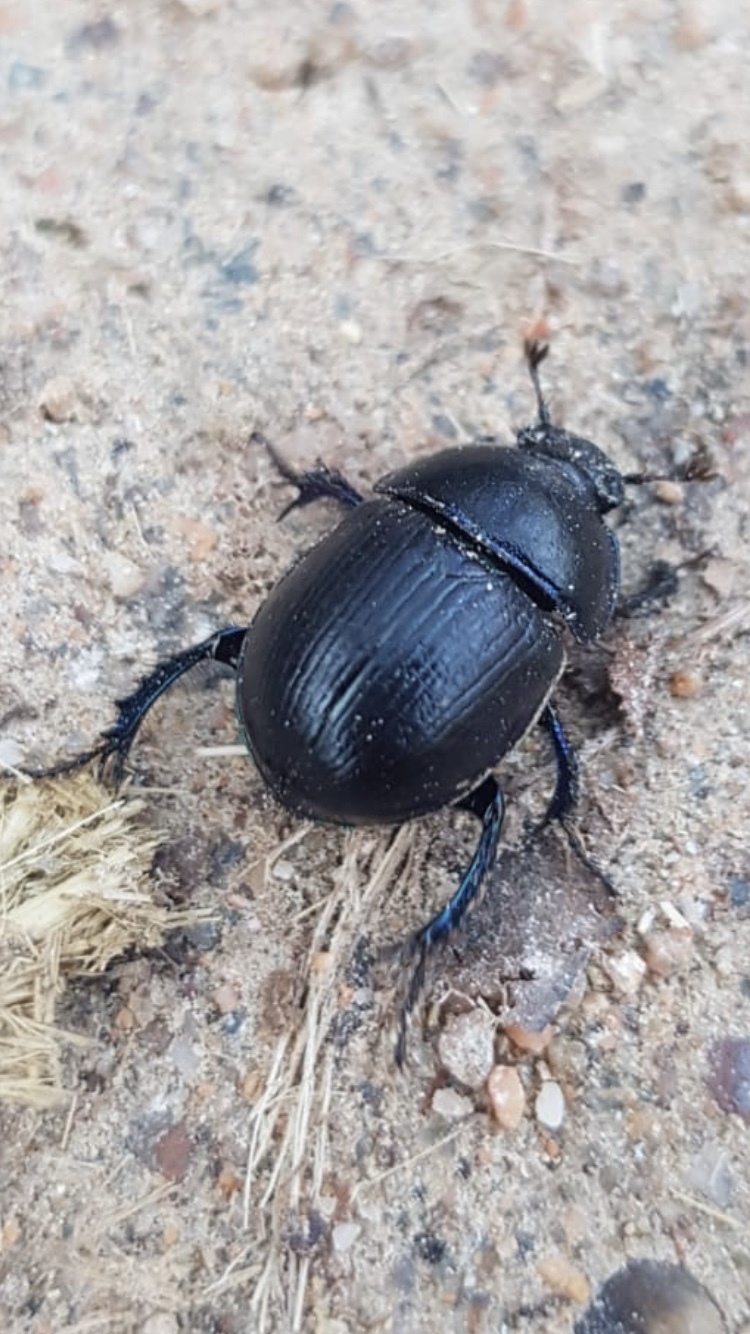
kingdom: Animalia
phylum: Arthropoda
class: Insecta
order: Coleoptera
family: Geotrupidae
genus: Anoplotrupes
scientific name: Anoplotrupes stercorosus
